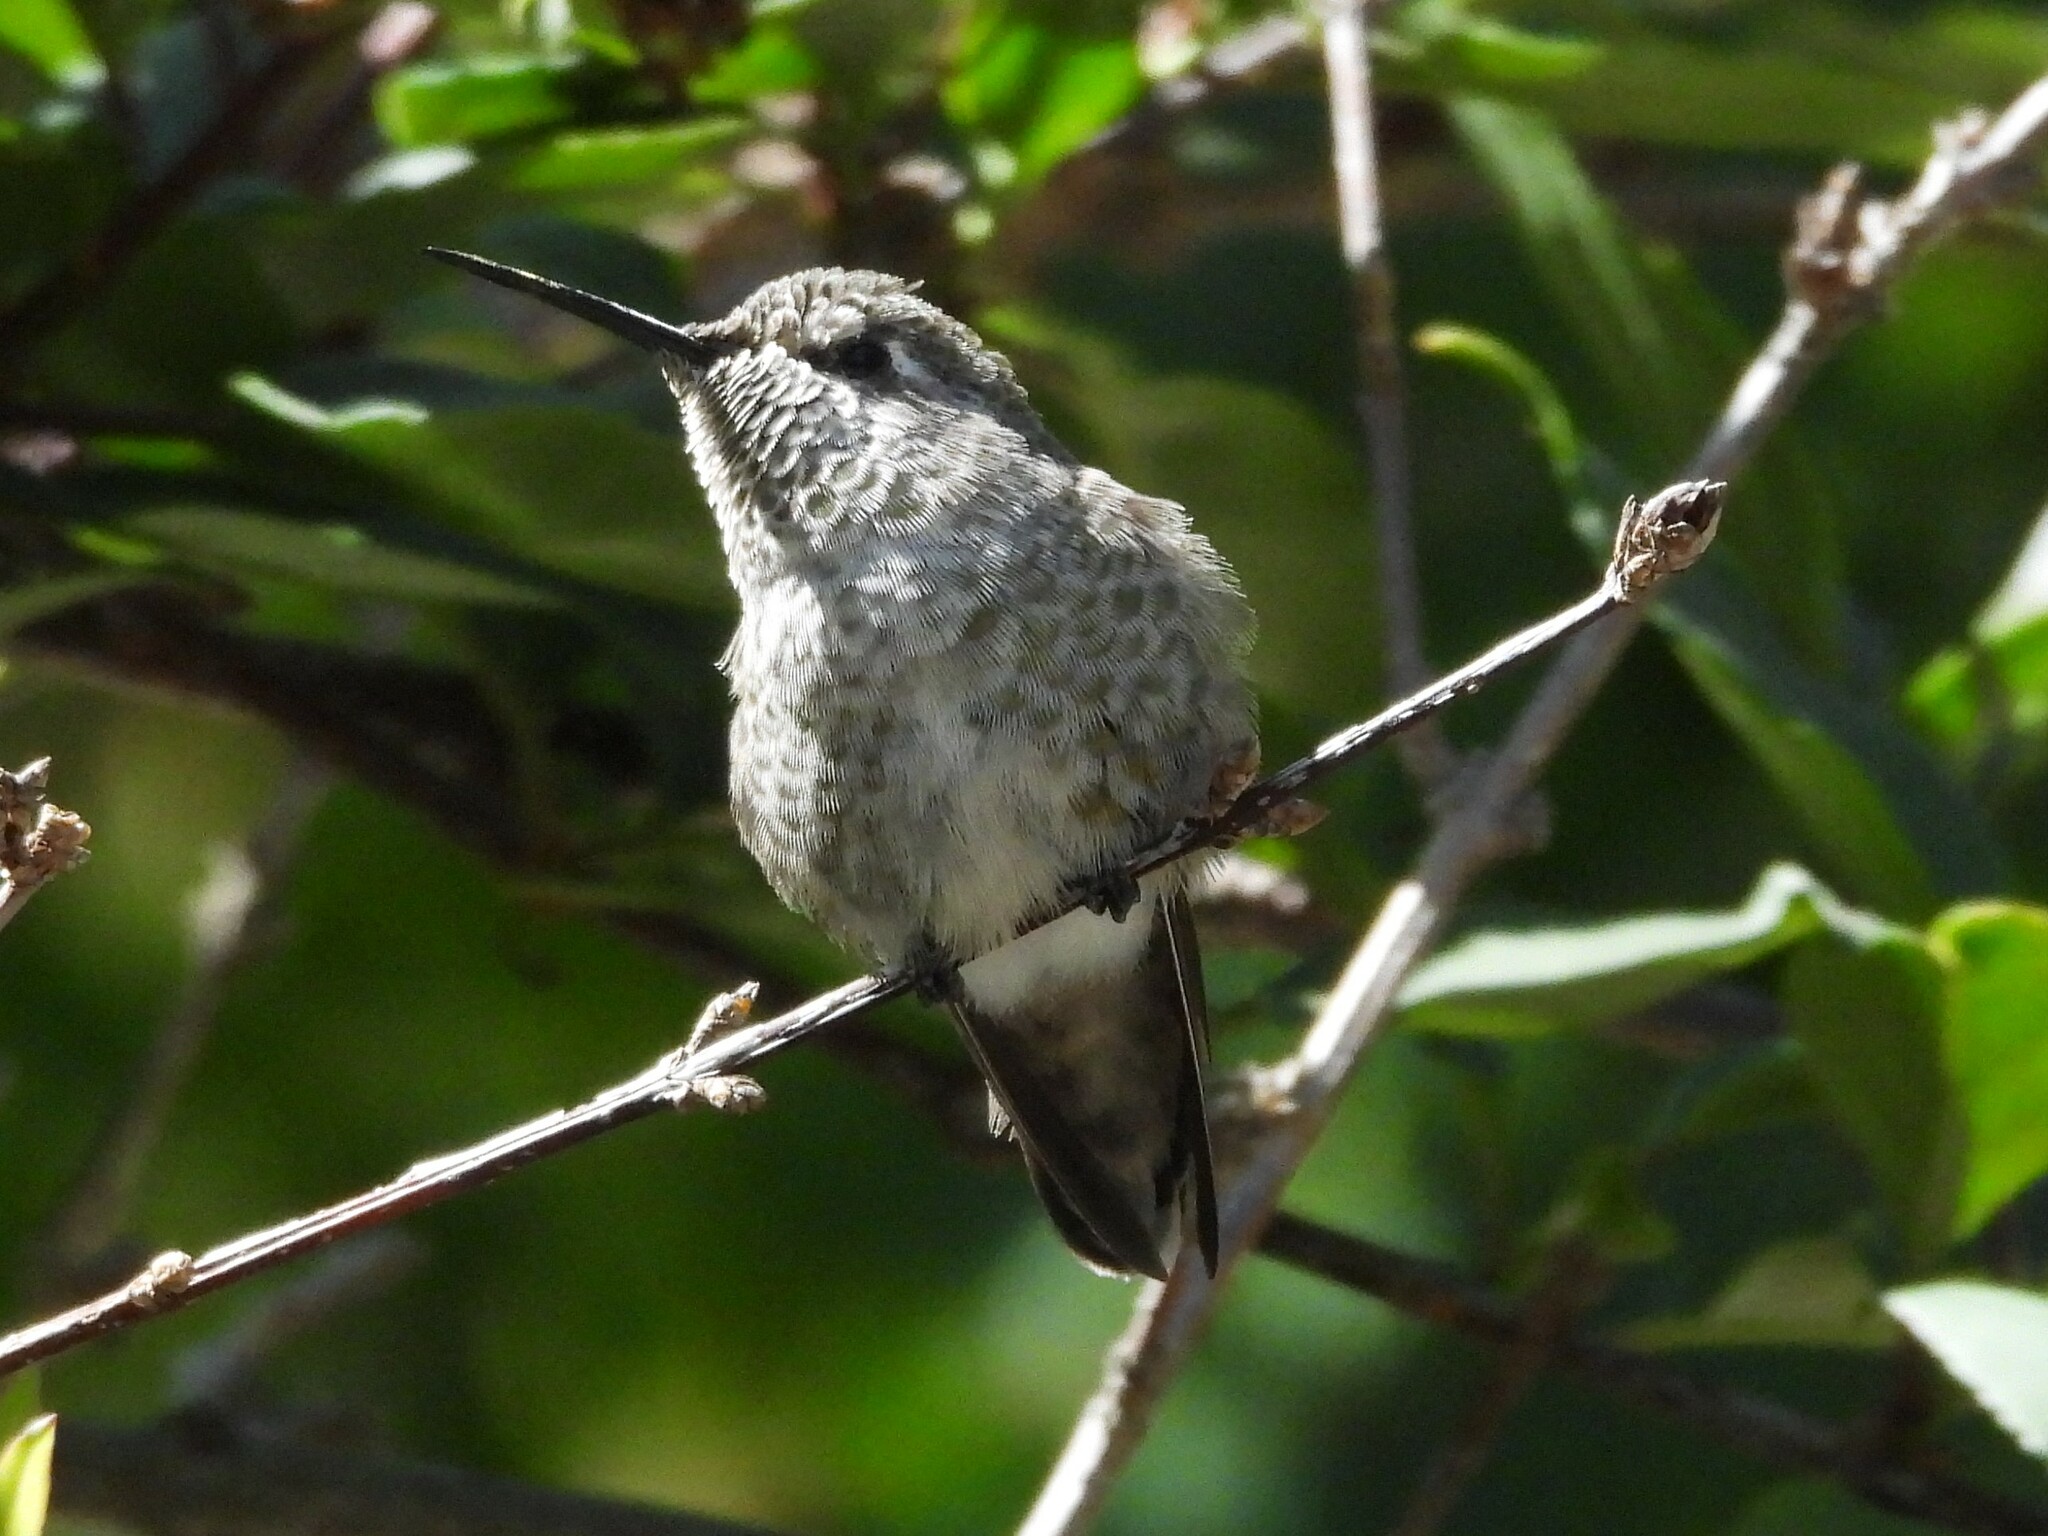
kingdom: Animalia
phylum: Chordata
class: Aves
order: Apodiformes
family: Trochilidae
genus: Calypte
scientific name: Calypte anna
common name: Anna's hummingbird
